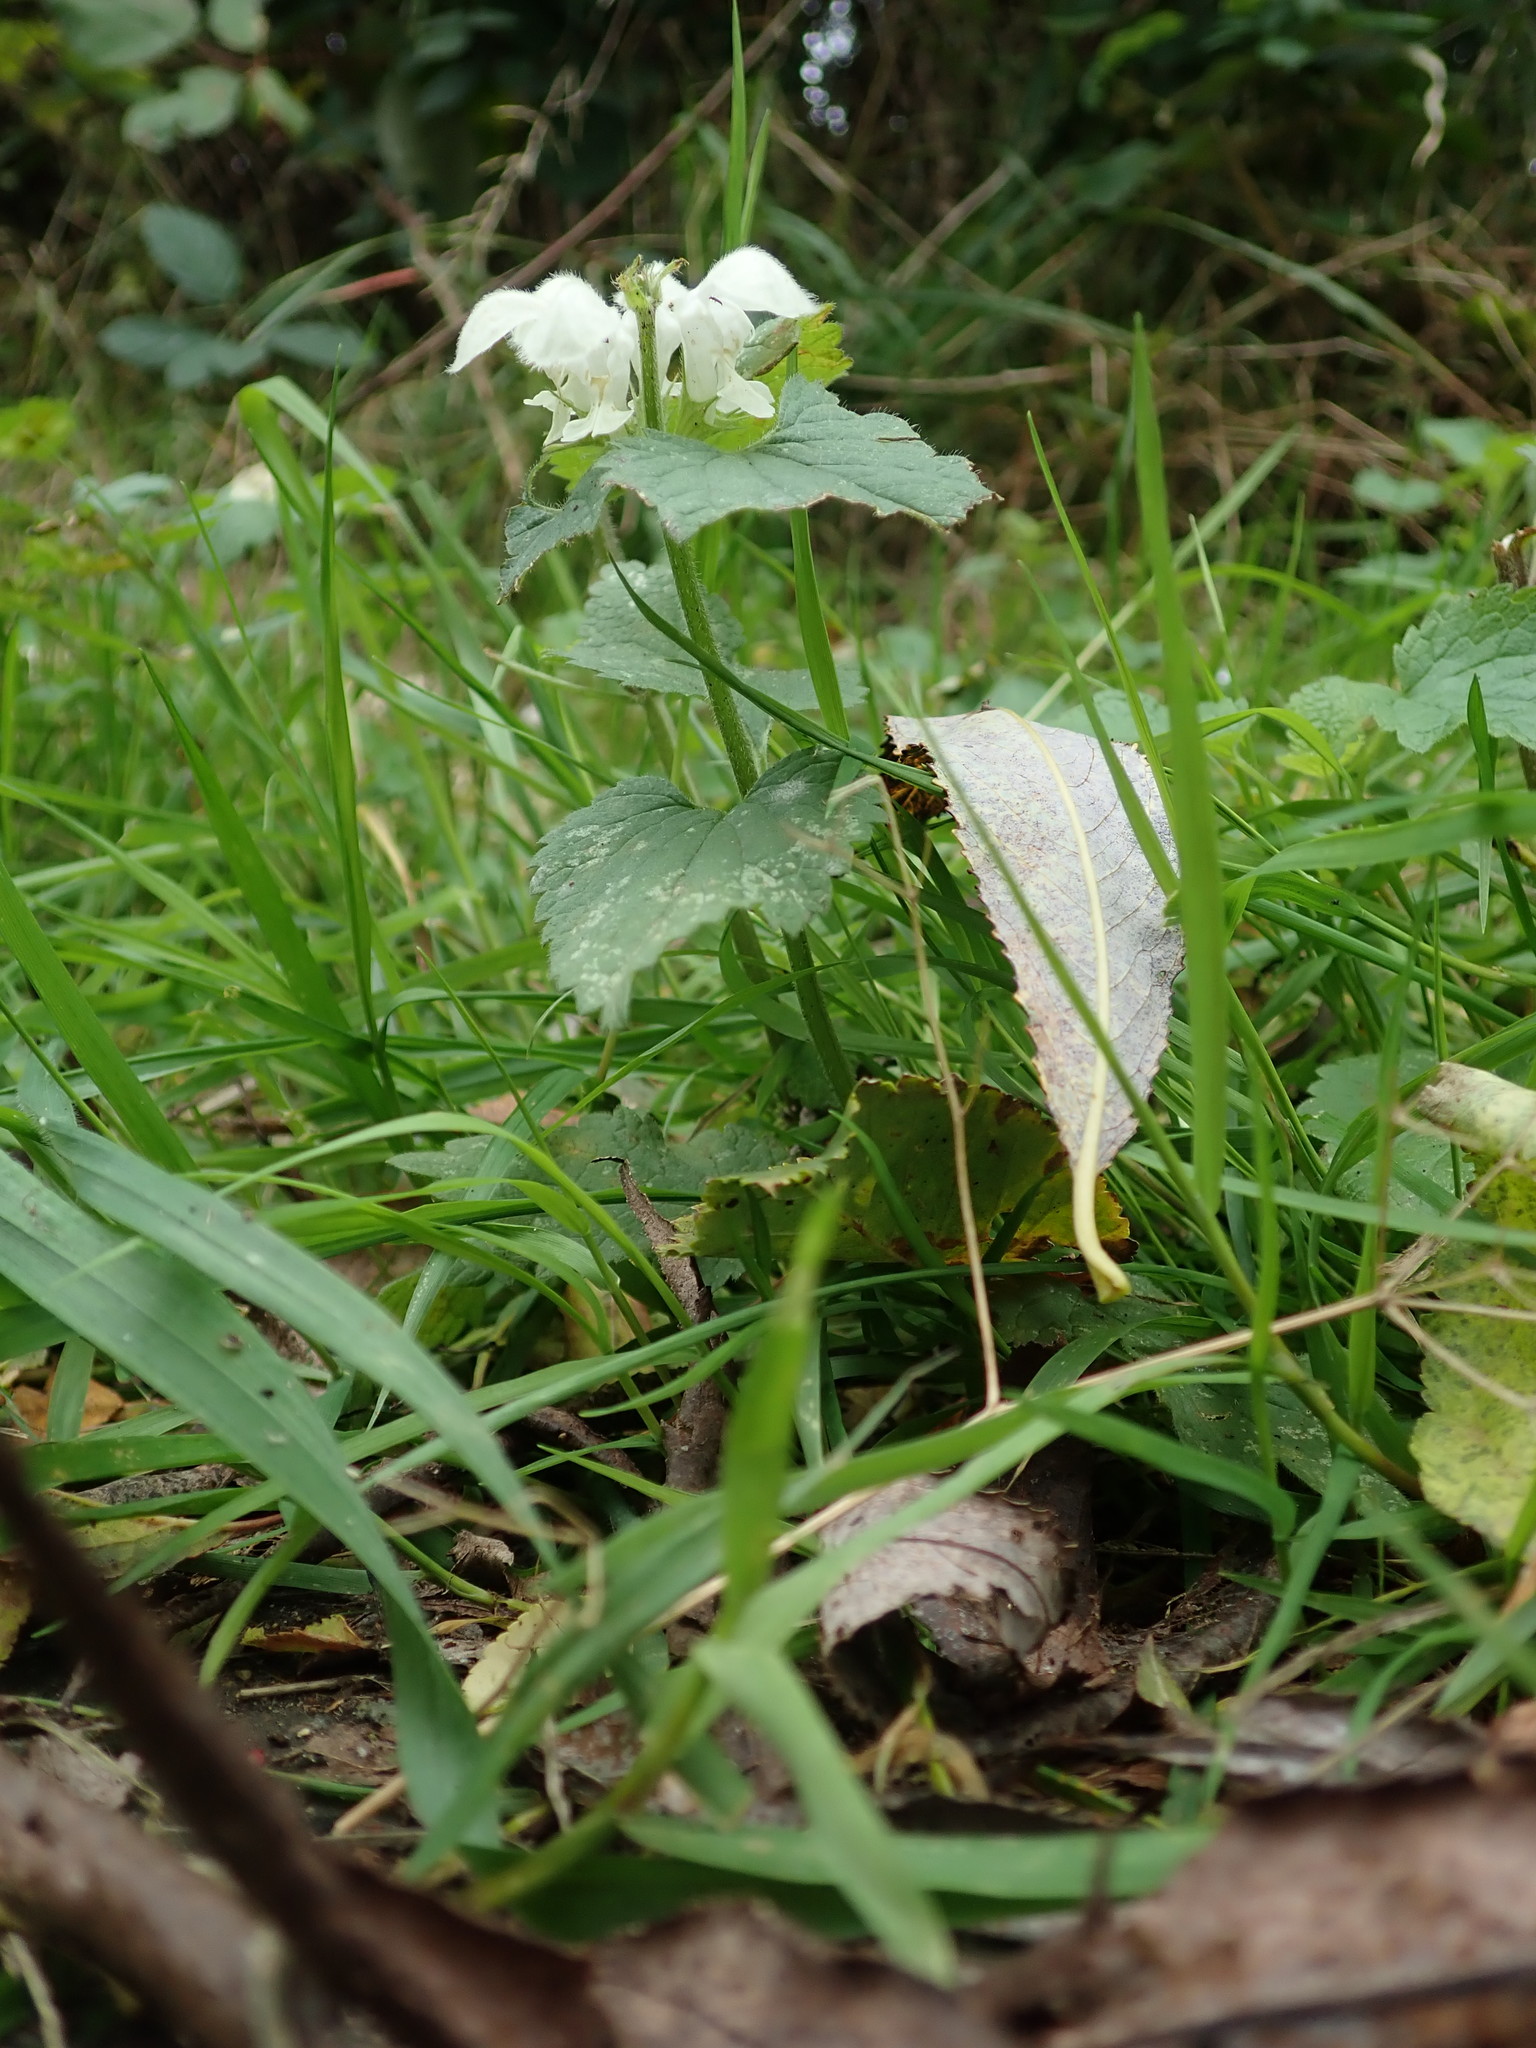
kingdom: Plantae
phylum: Tracheophyta
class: Magnoliopsida
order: Lamiales
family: Lamiaceae
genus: Lamium
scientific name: Lamium album
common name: White dead-nettle
